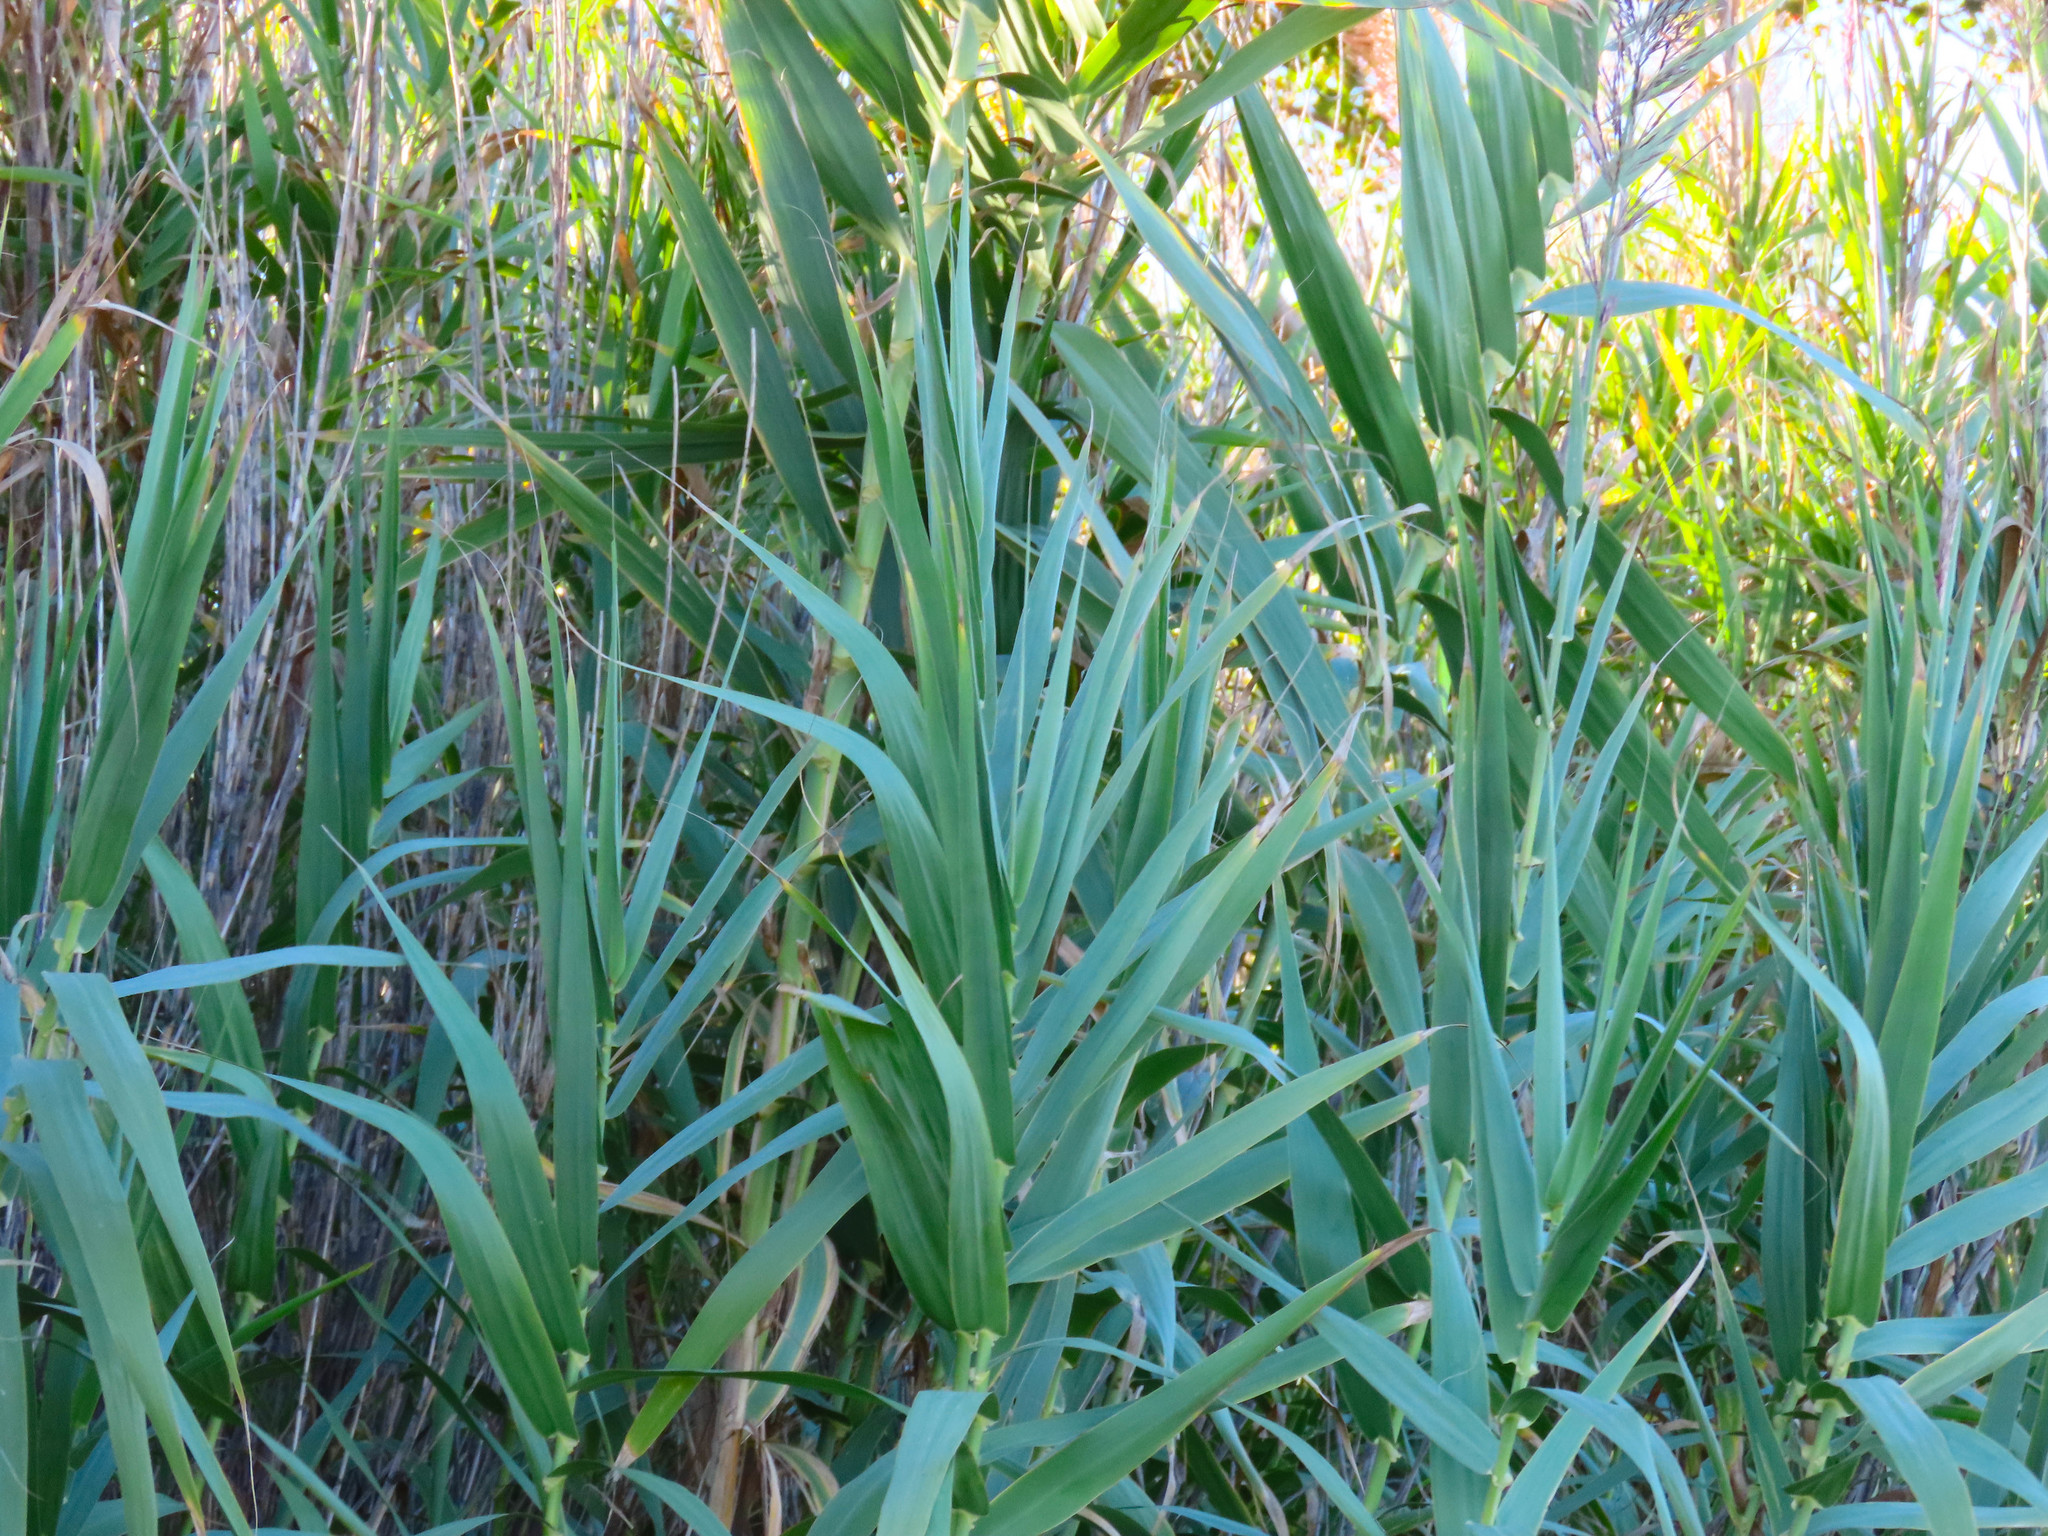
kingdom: Plantae
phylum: Tracheophyta
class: Liliopsida
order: Poales
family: Poaceae
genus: Phragmites
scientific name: Phragmites australis
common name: Common reed
